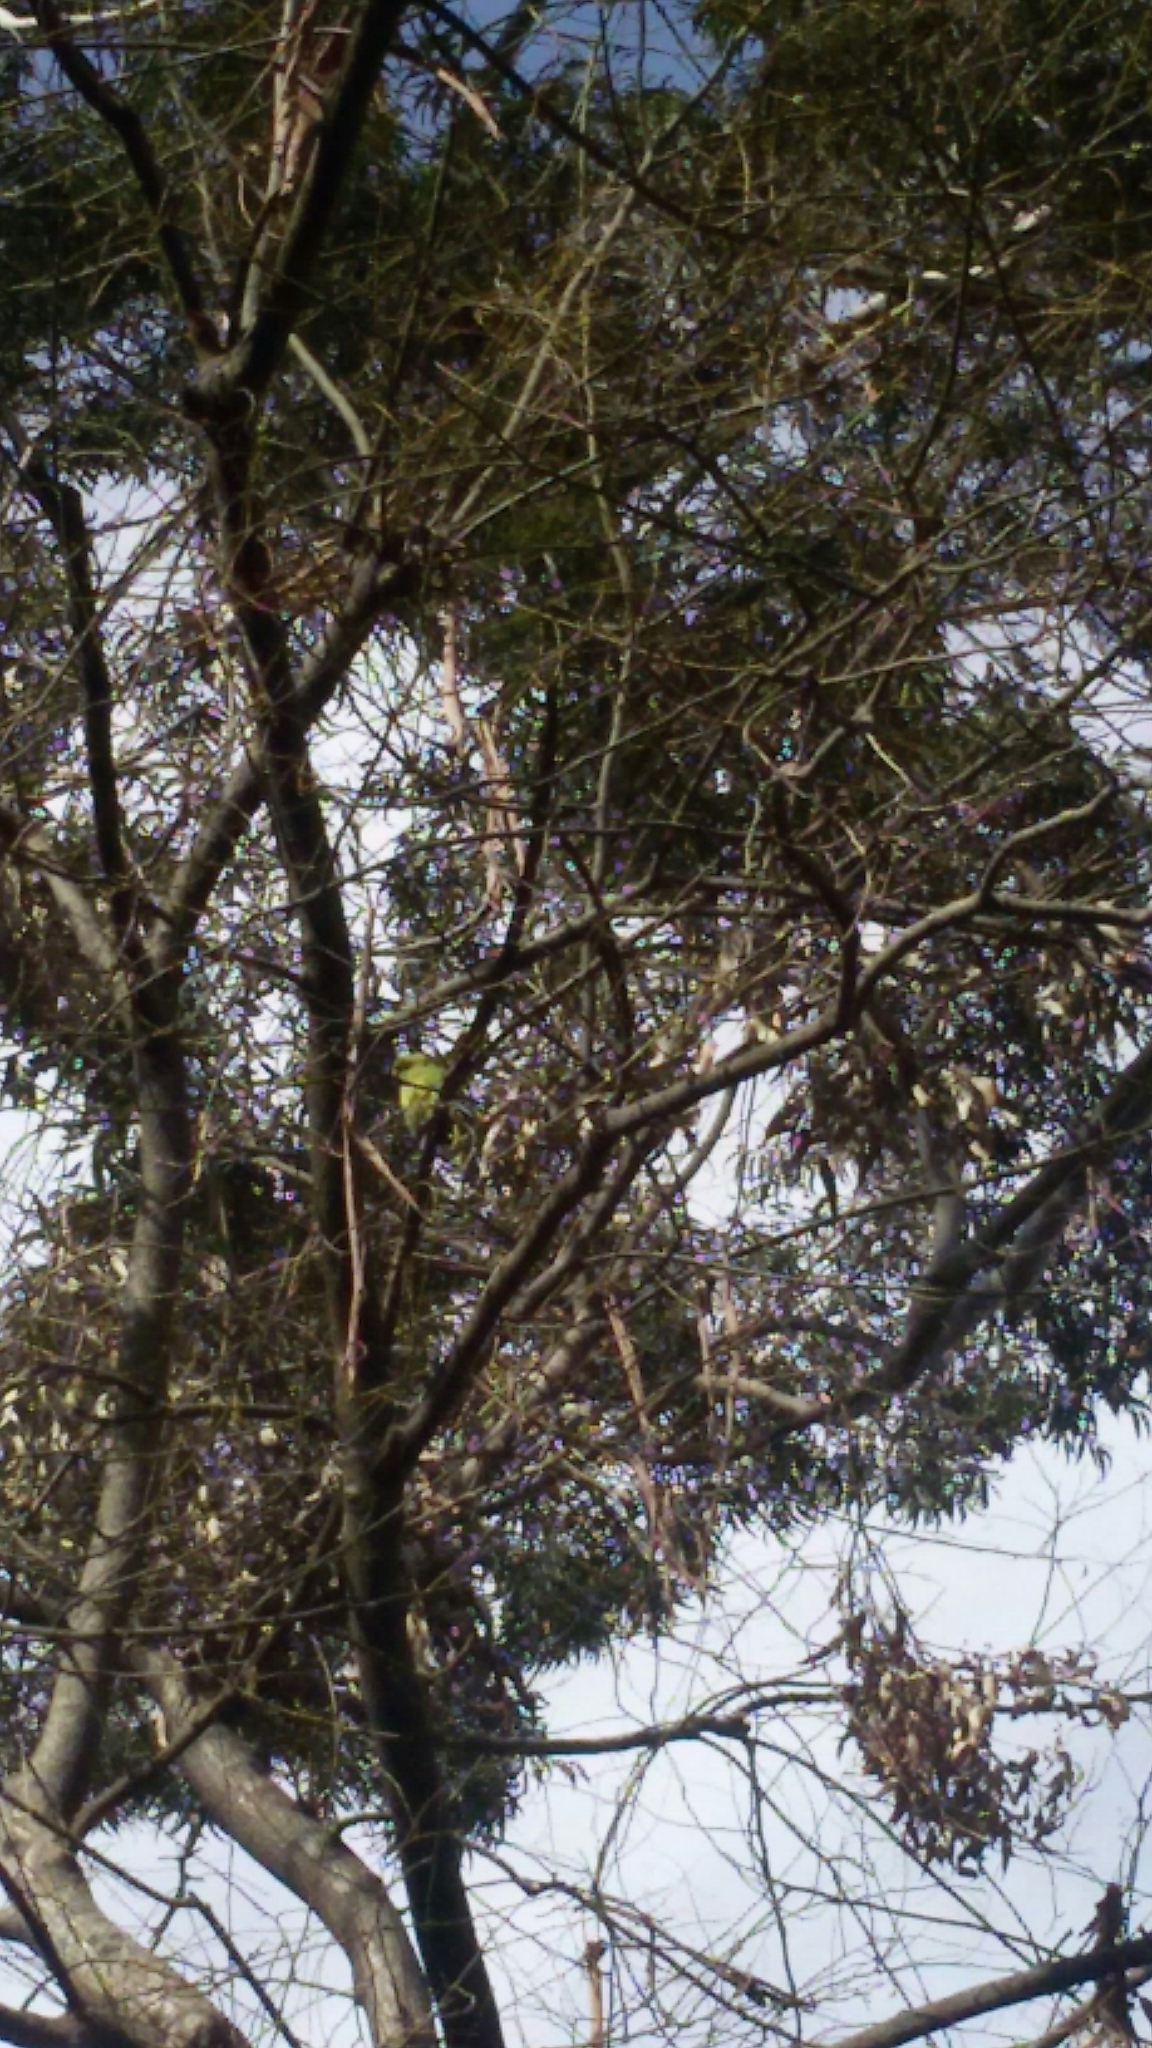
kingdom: Animalia
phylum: Chordata
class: Aves
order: Psittaciformes
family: Psittacidae
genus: Psittacula
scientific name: Psittacula krameri
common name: Rose-ringed parakeet
